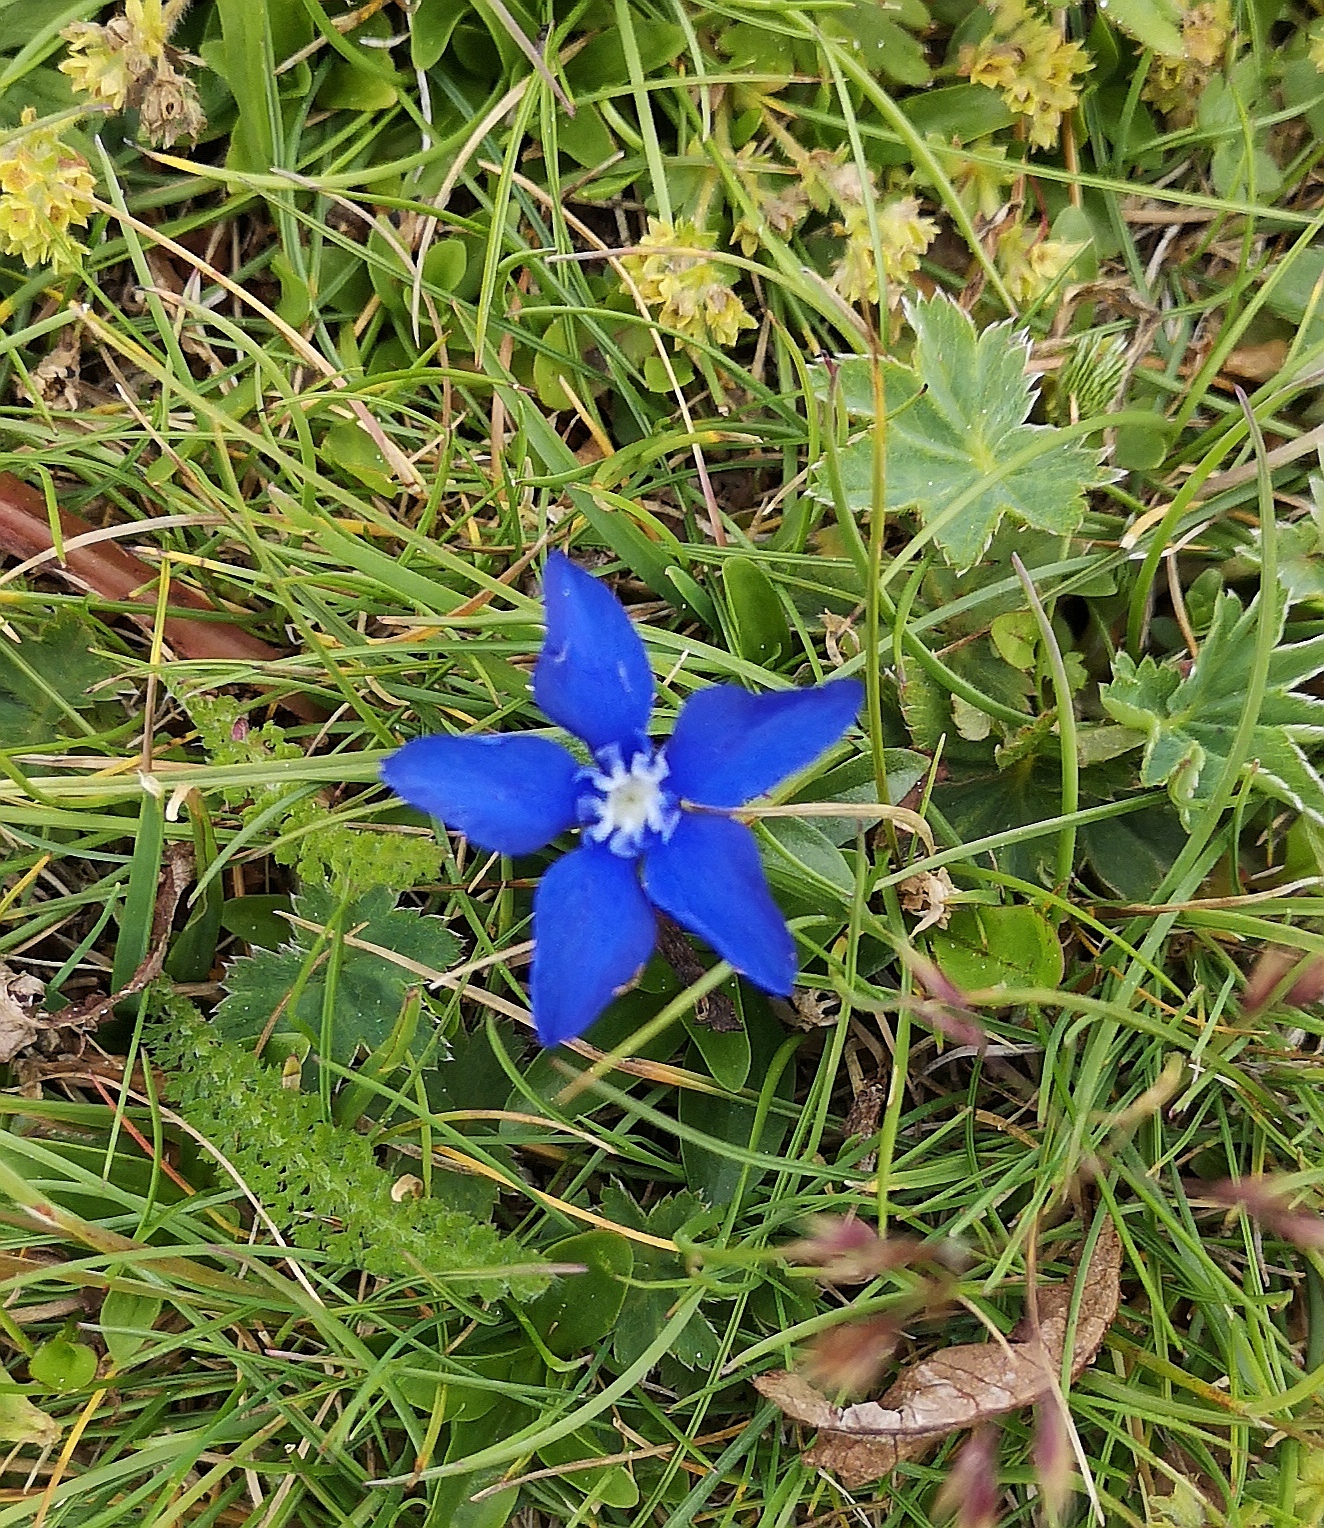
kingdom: Plantae
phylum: Tracheophyta
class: Magnoliopsida
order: Gentianales
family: Gentianaceae
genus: Gentiana
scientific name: Gentiana verna
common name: Spring gentian
